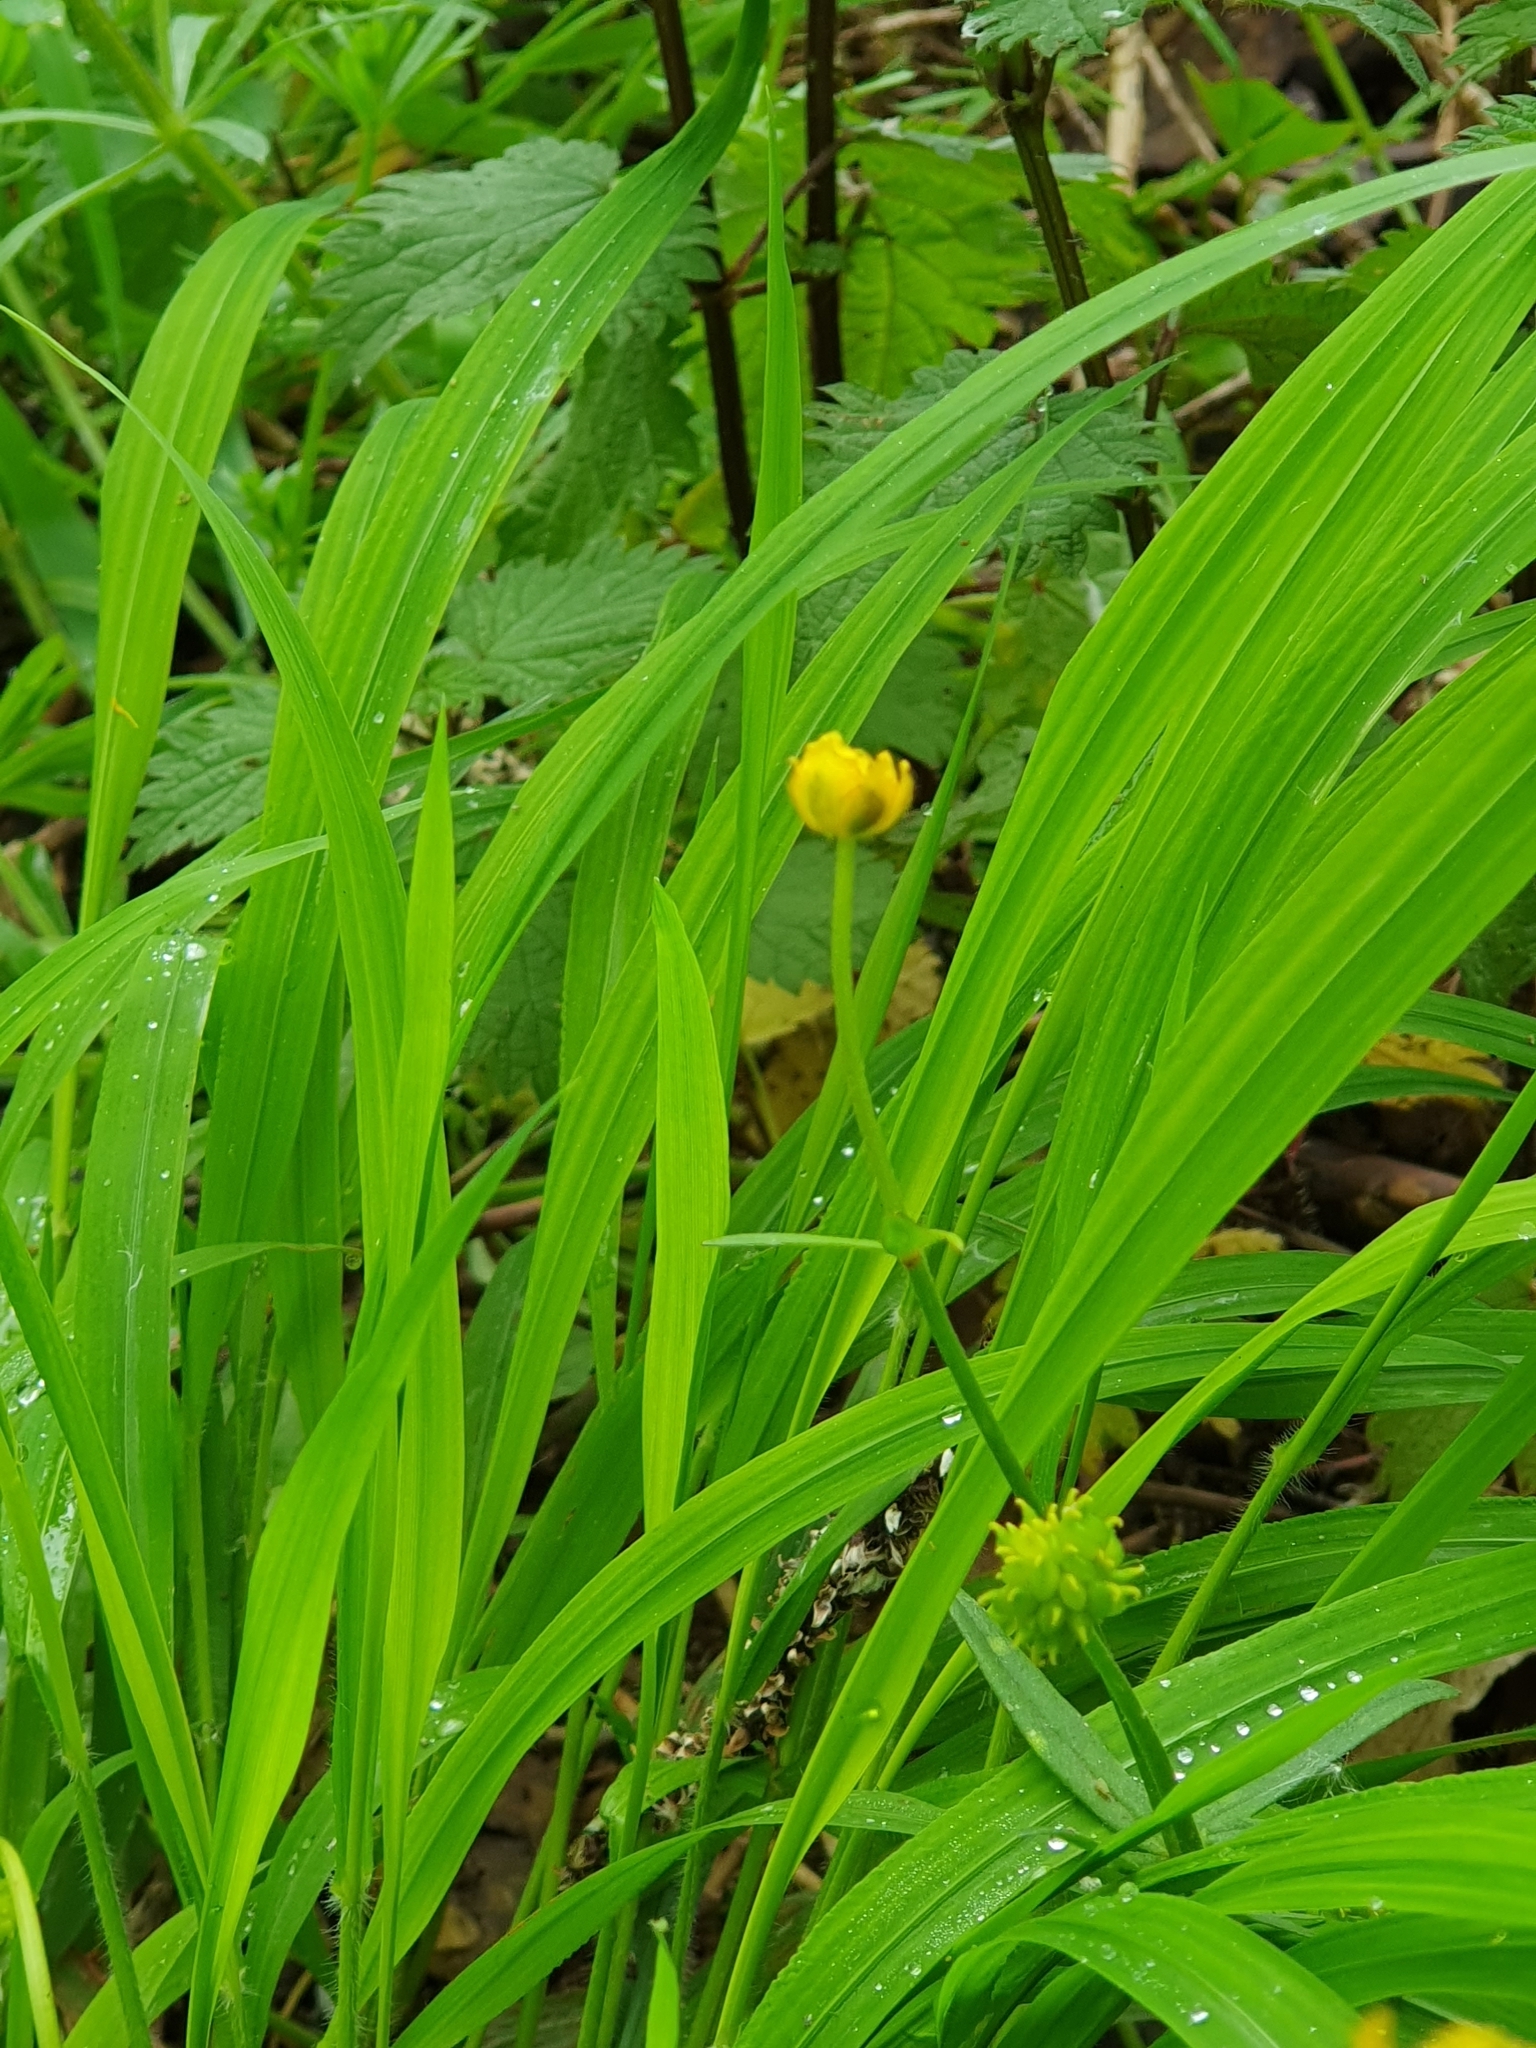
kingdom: Plantae
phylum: Tracheophyta
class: Magnoliopsida
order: Ranunculales
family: Ranunculaceae
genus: Ranunculus
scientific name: Ranunculus auricomus
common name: Goldilocks buttercup
